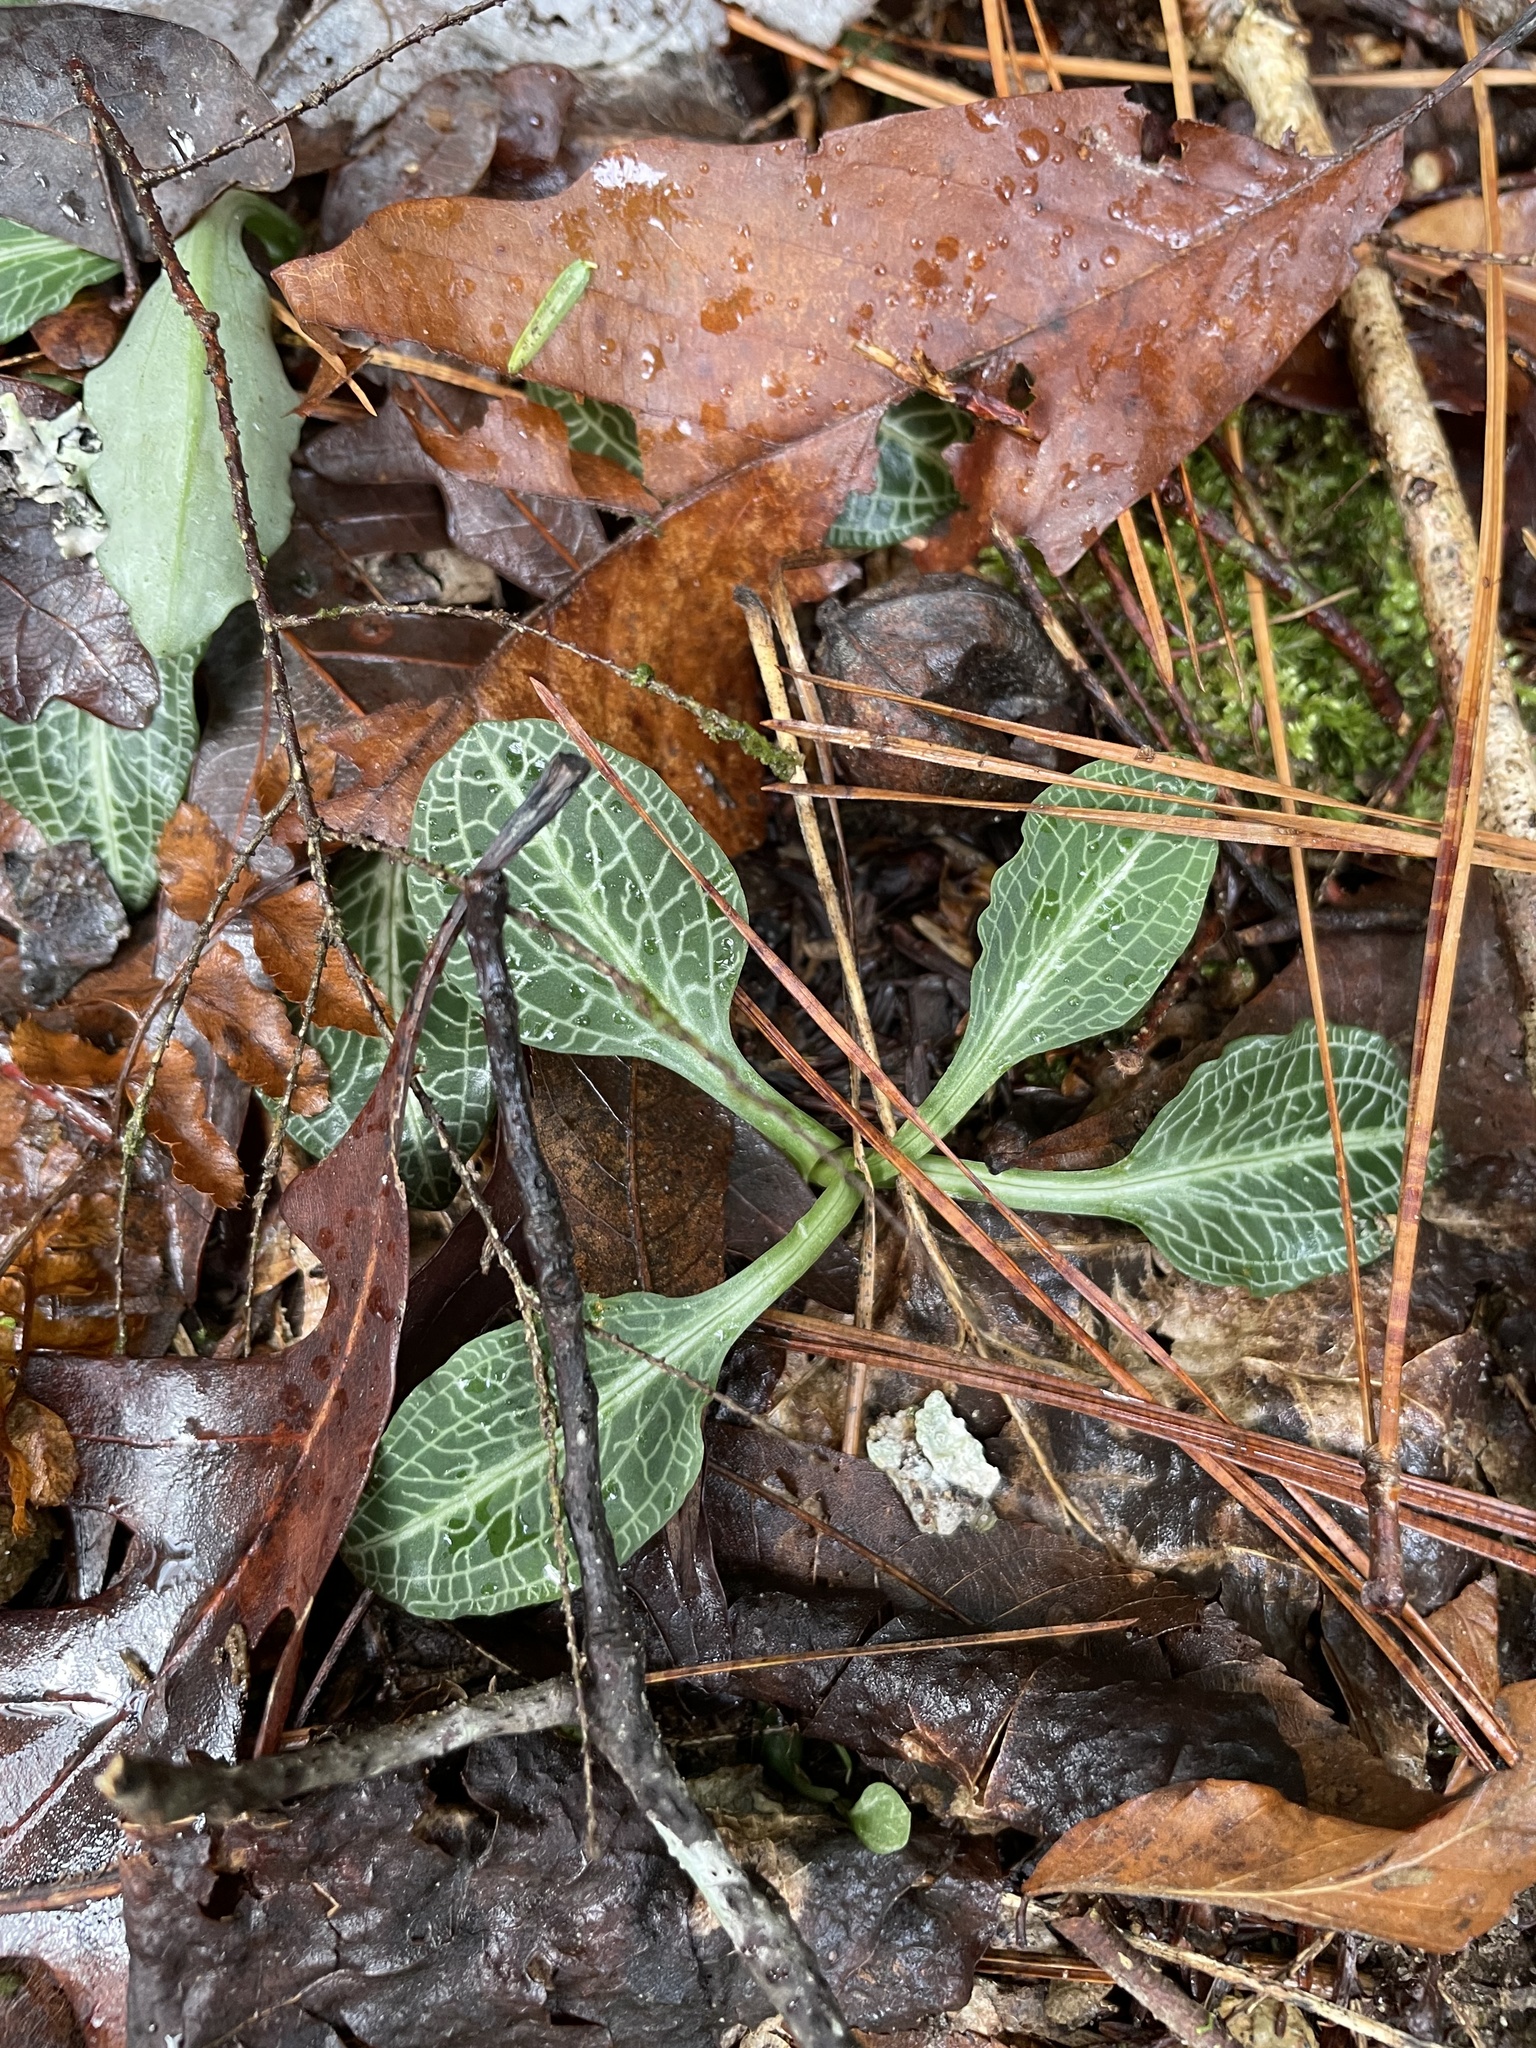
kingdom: Plantae
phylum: Tracheophyta
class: Liliopsida
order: Asparagales
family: Orchidaceae
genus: Goodyera
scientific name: Goodyera pubescens
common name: Downy rattlesnake-plantain
